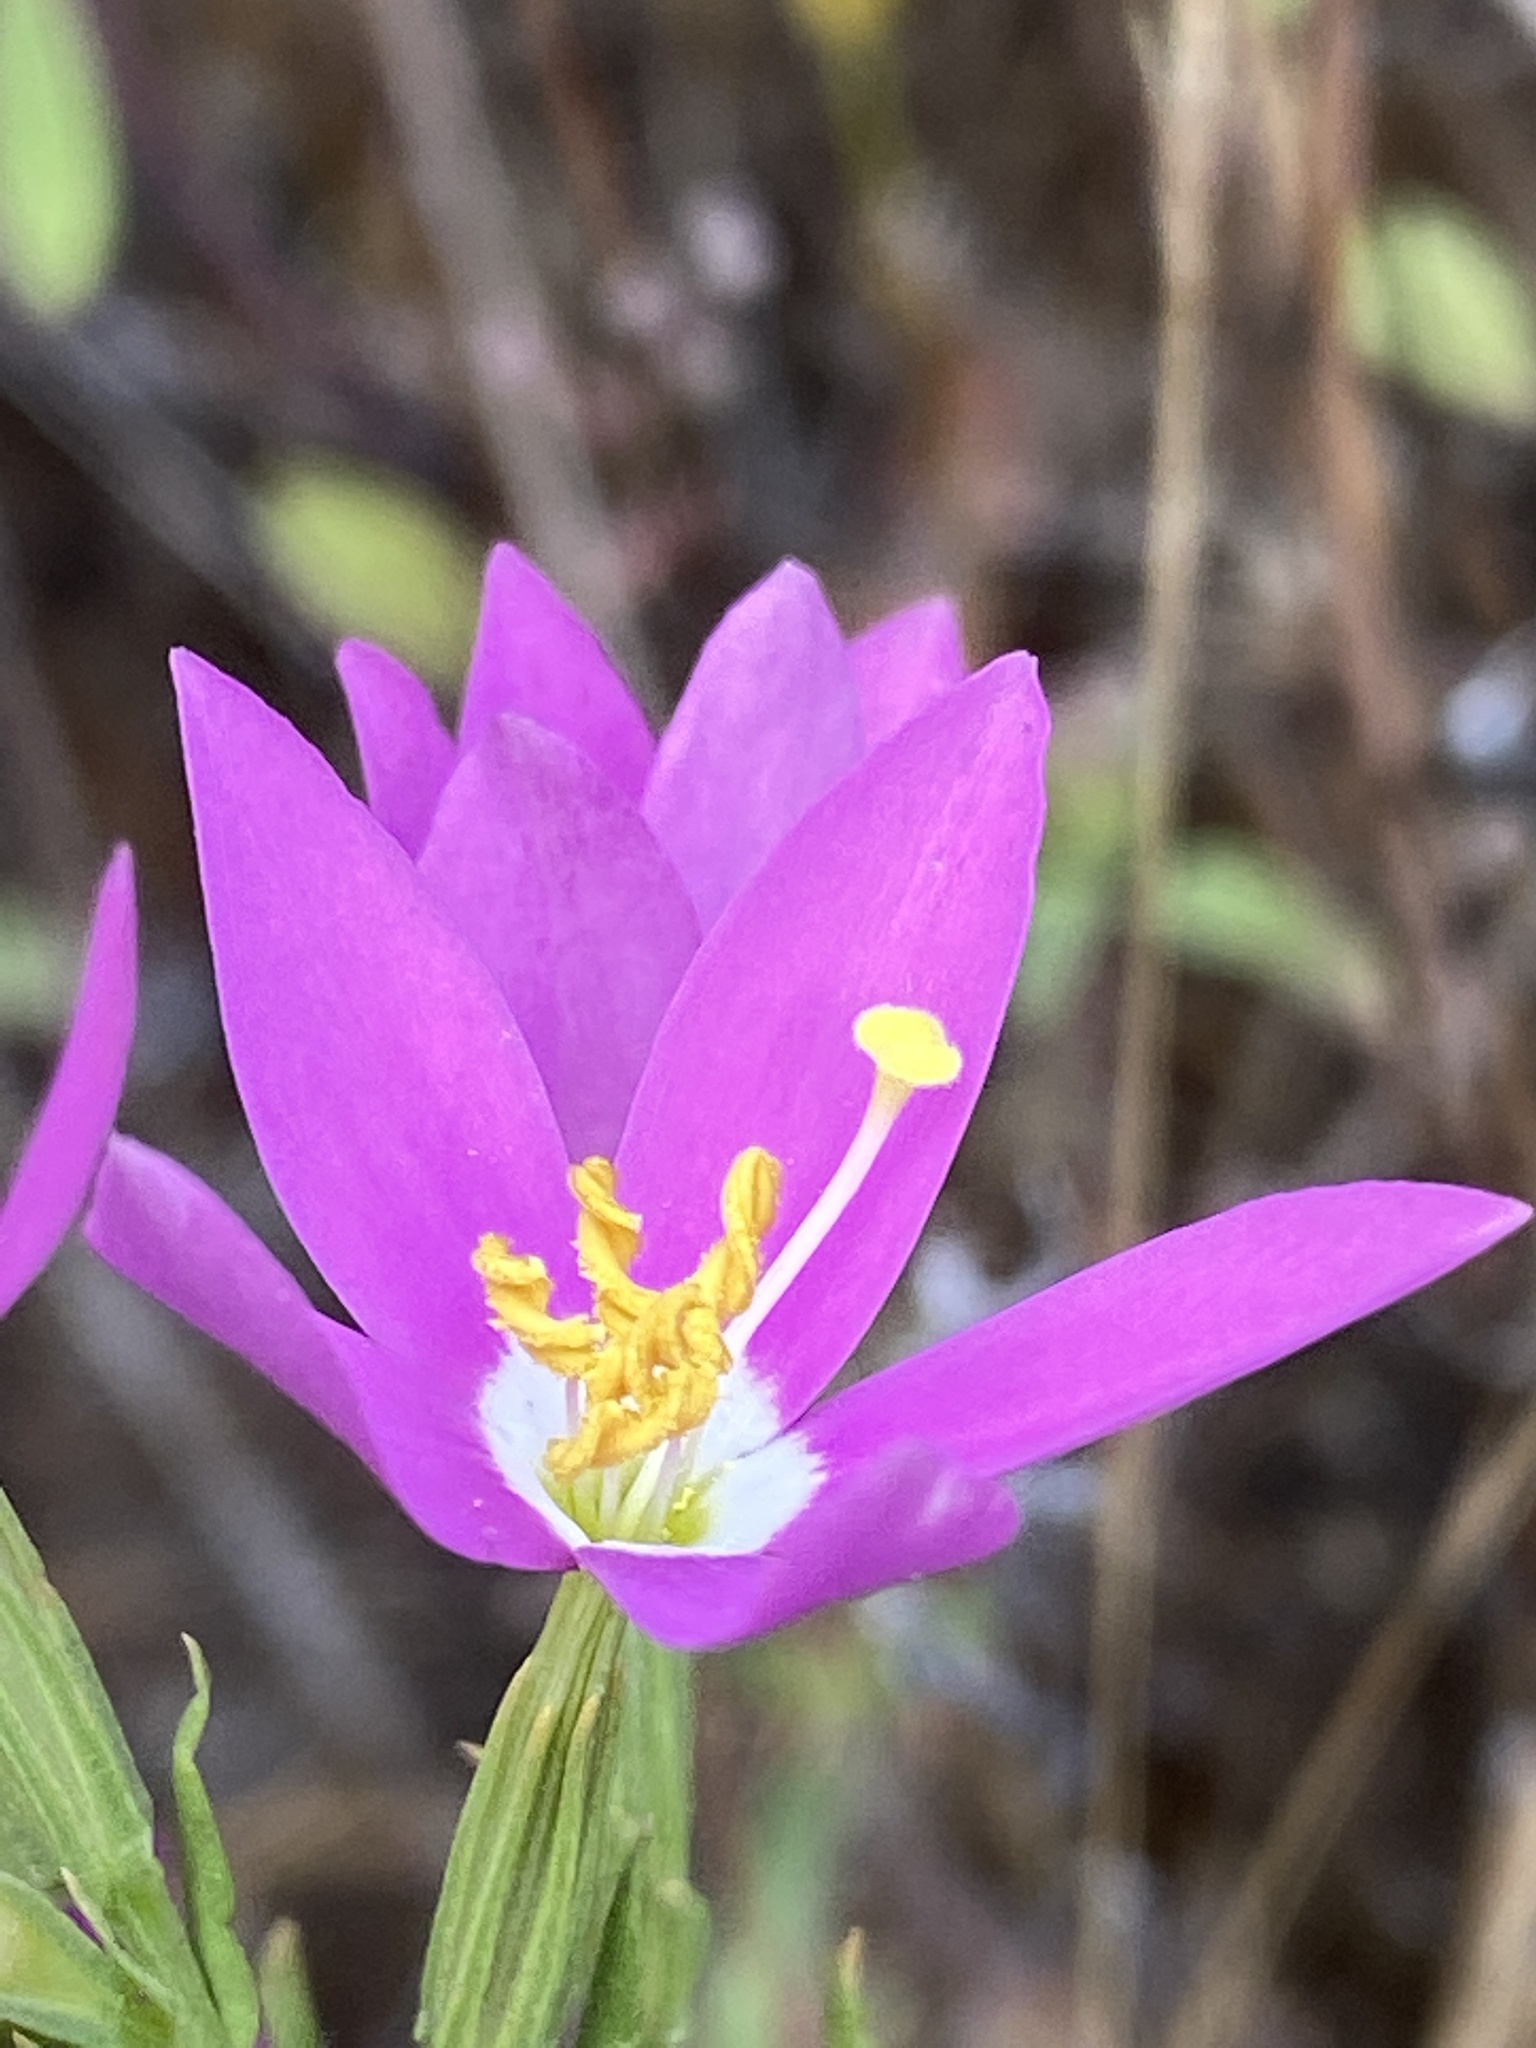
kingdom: Plantae
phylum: Tracheophyta
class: Magnoliopsida
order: Gentianales
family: Gentianaceae
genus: Zeltnera
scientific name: Zeltnera venusta
